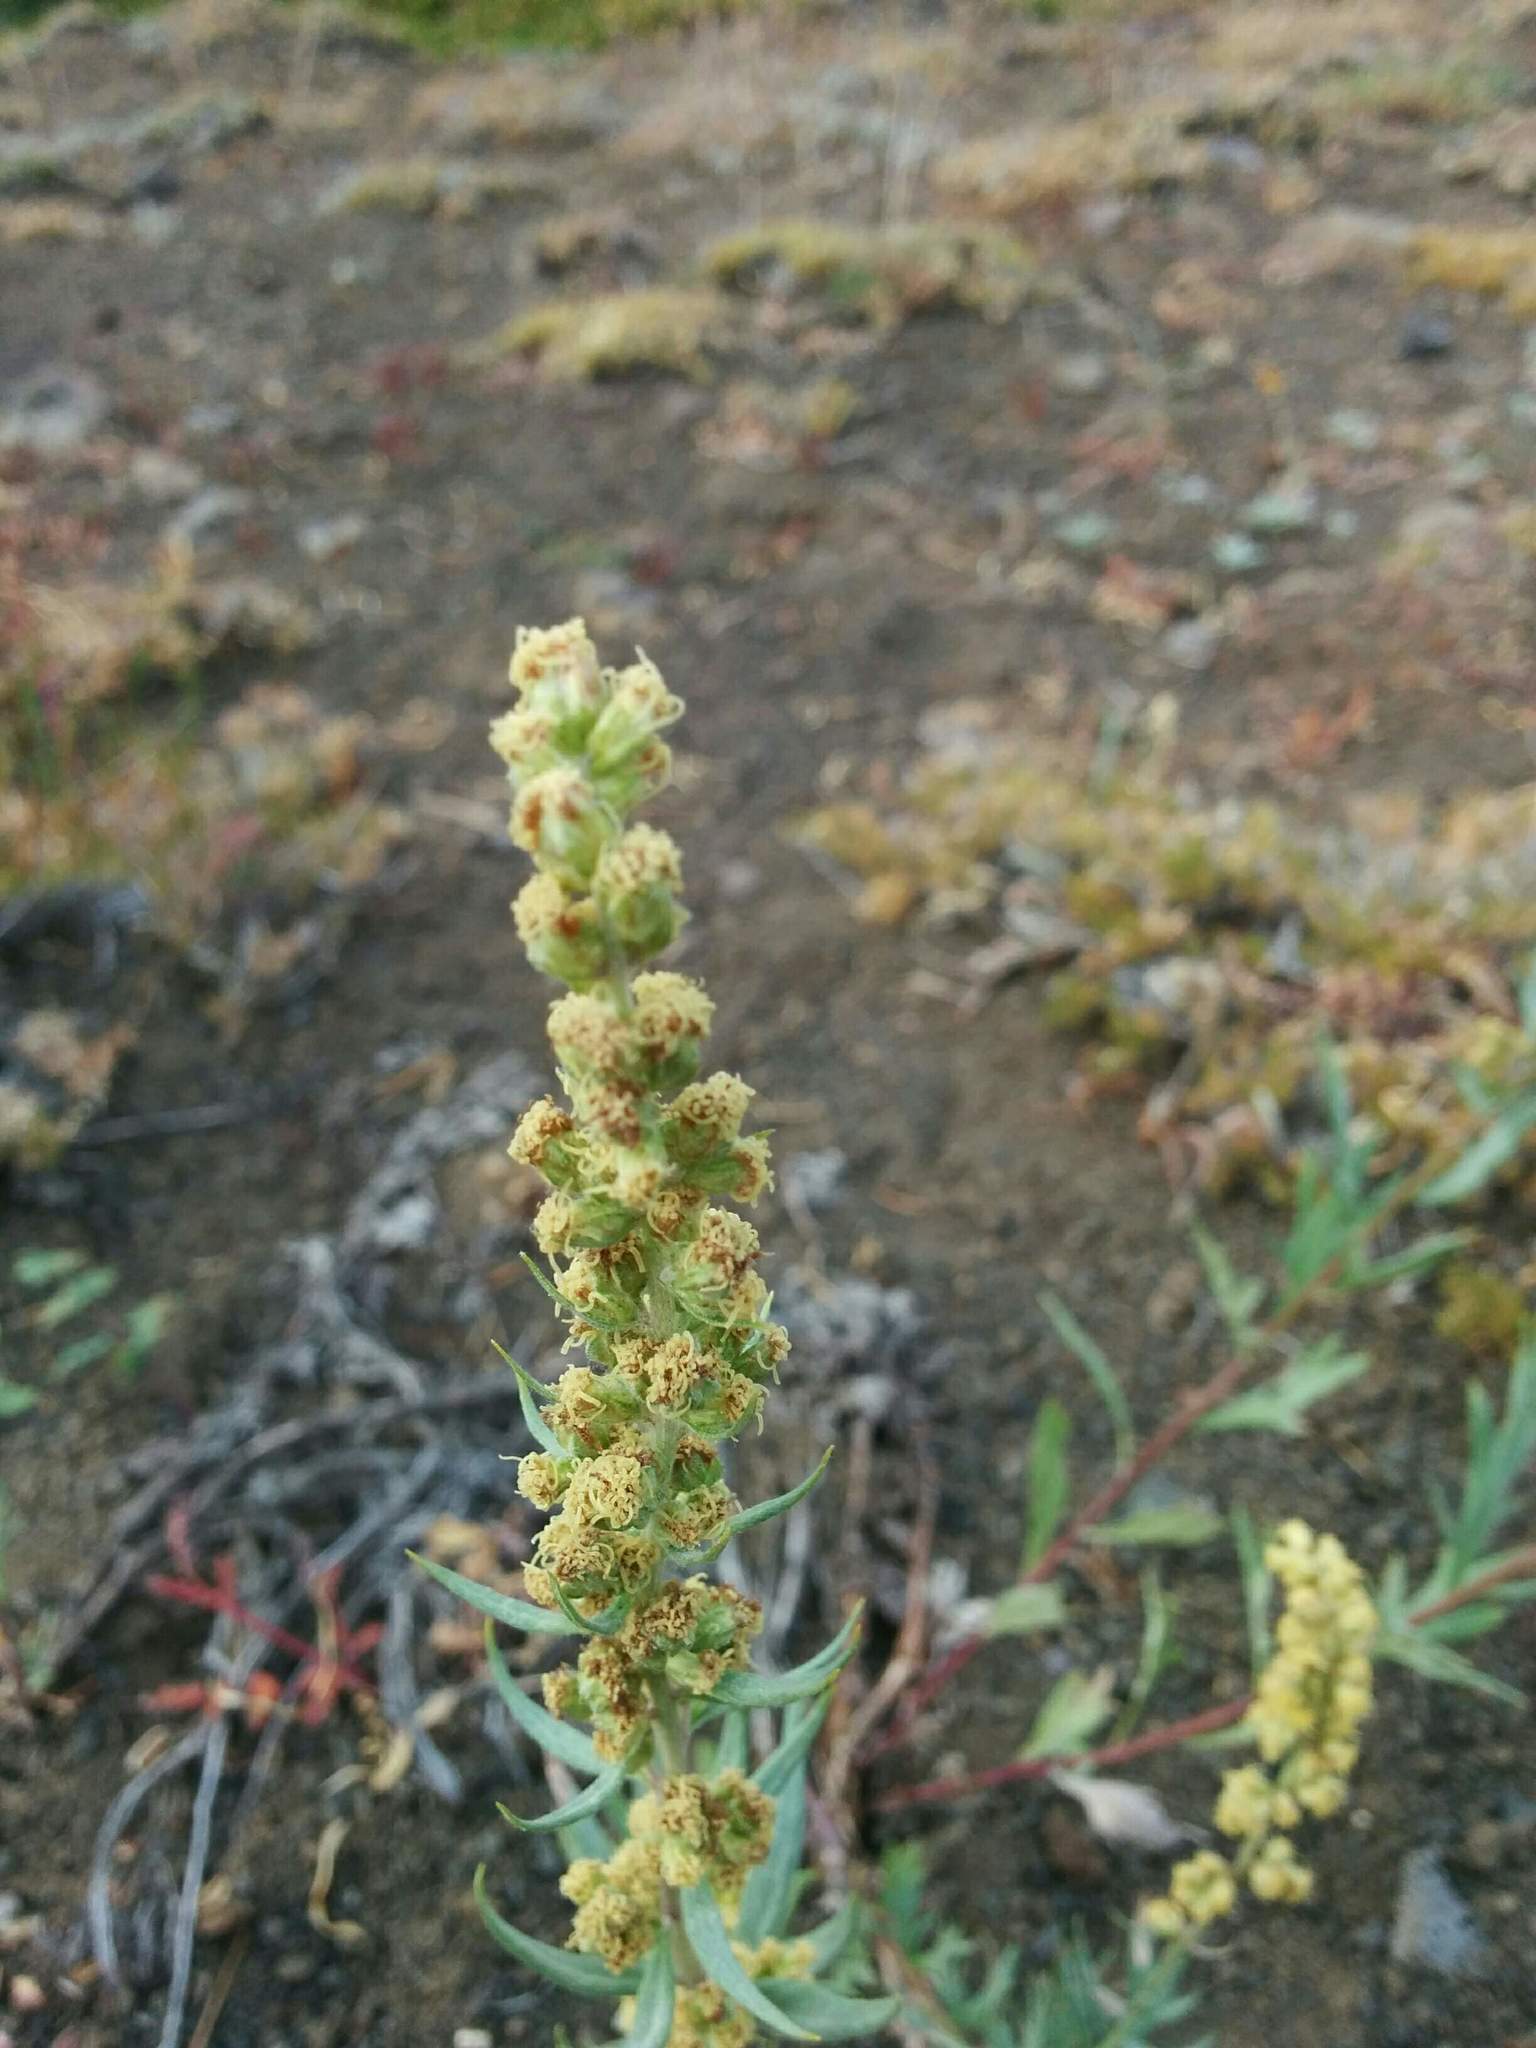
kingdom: Plantae
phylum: Tracheophyta
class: Magnoliopsida
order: Asterales
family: Asteraceae
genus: Artemisia
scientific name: Artemisia ludoviciana
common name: Western mugwort
